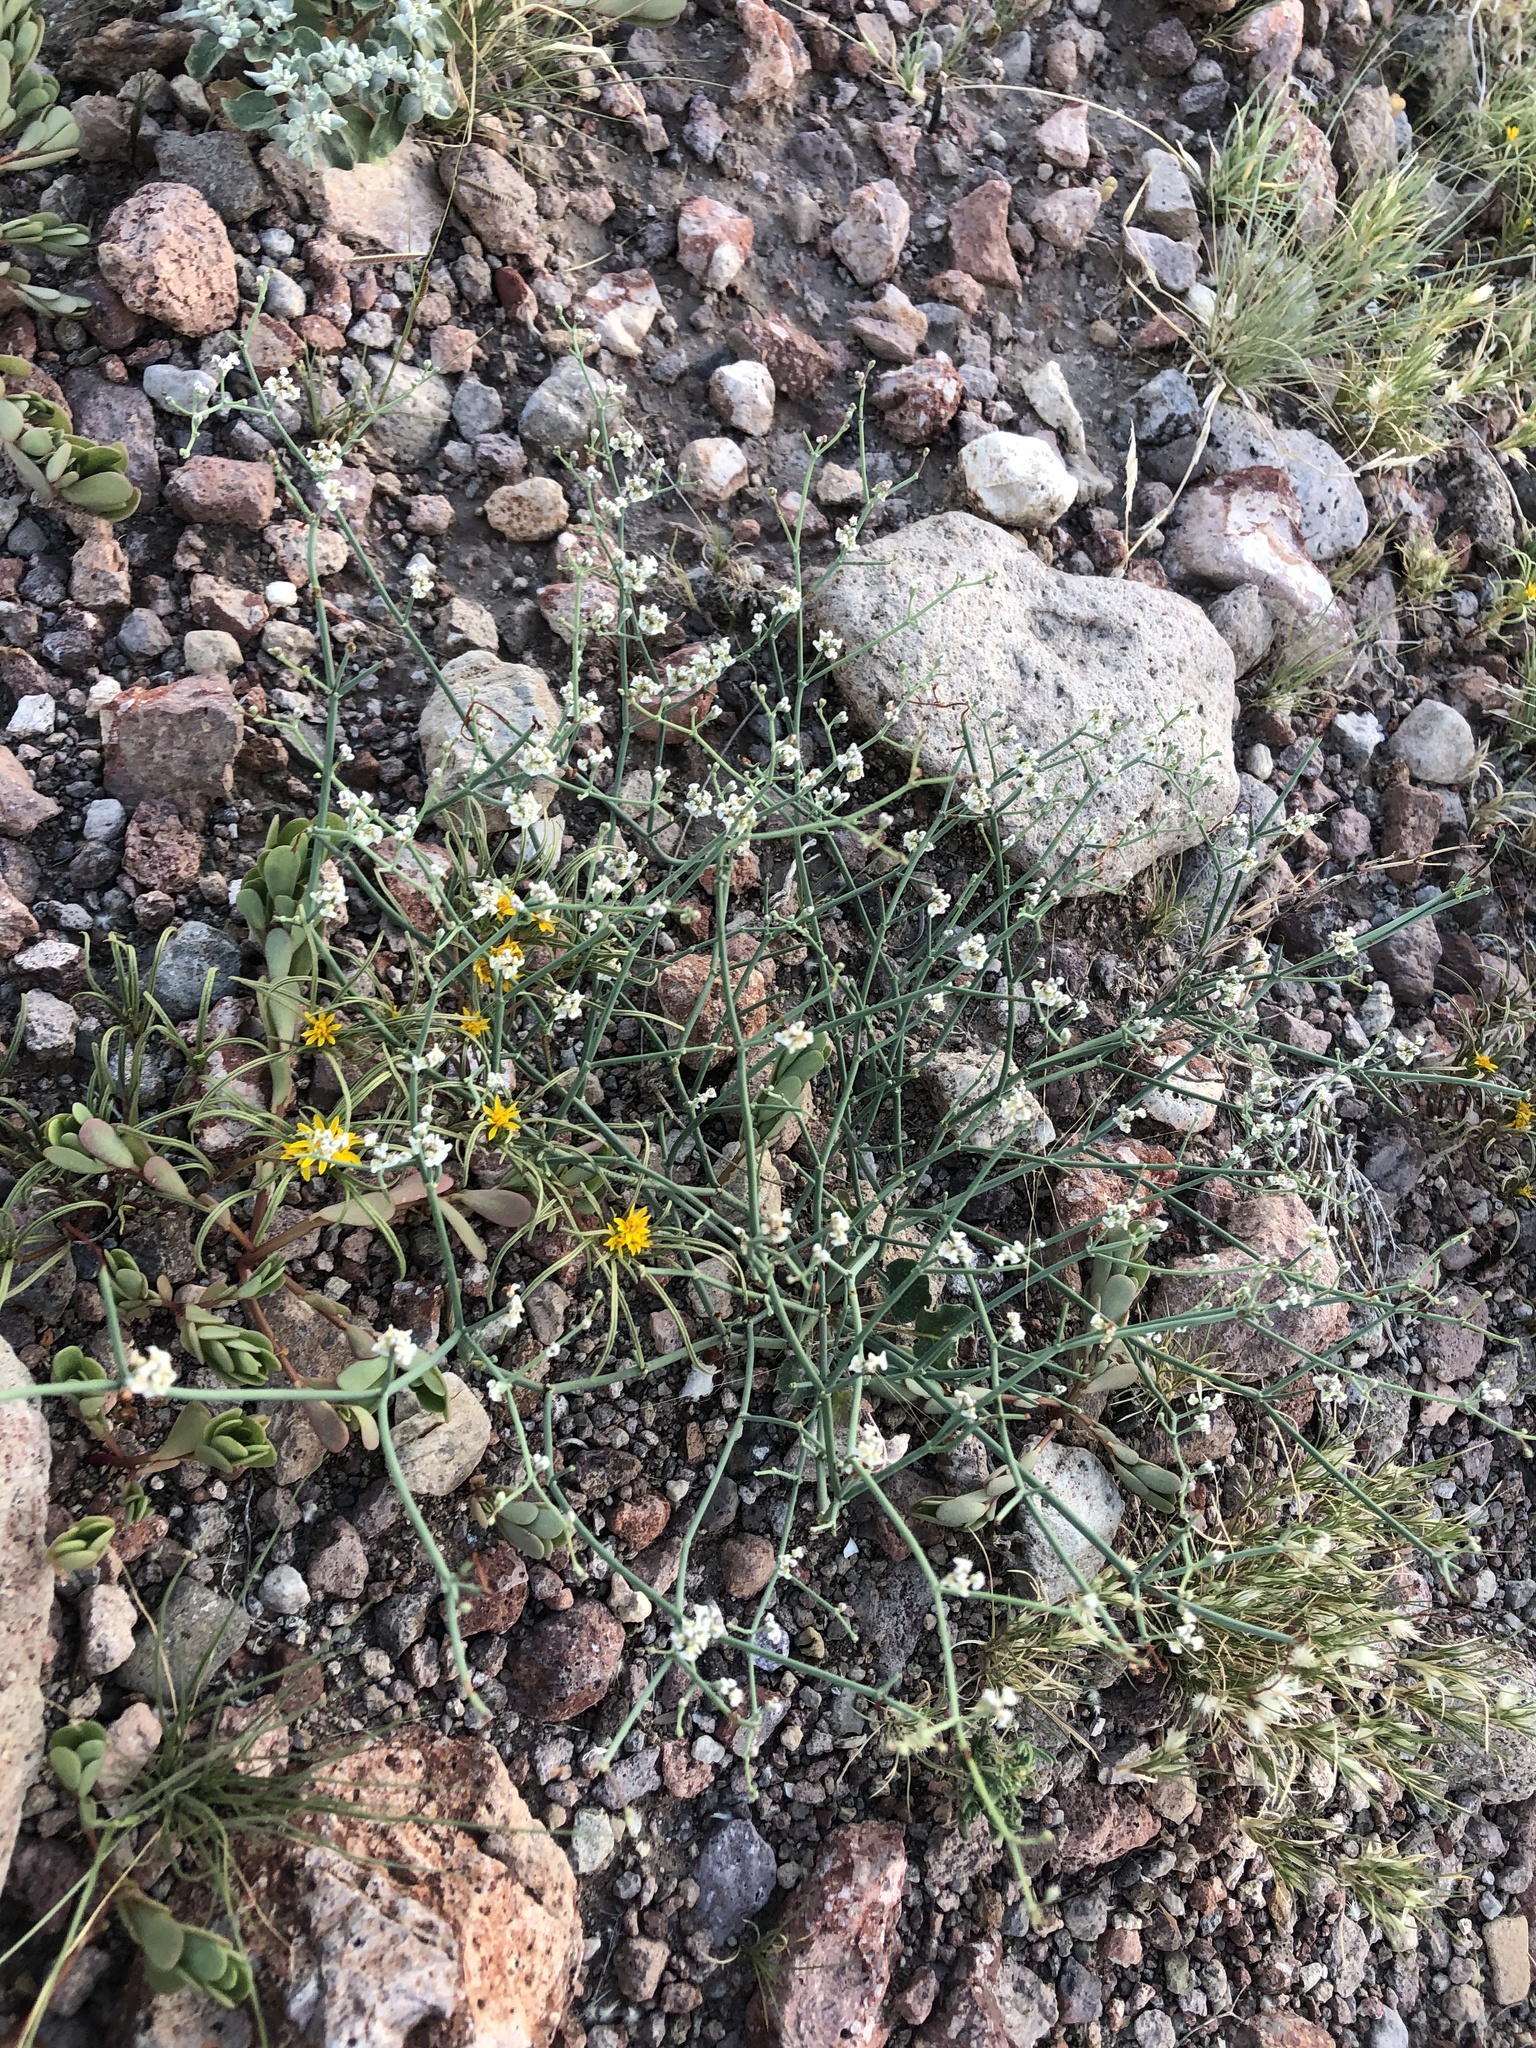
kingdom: Plantae
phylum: Tracheophyta
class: Magnoliopsida
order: Caryophyllales
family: Polygonaceae
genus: Eriogonum
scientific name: Eriogonum rotundifolium
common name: Round-leaf wild buckwheat
